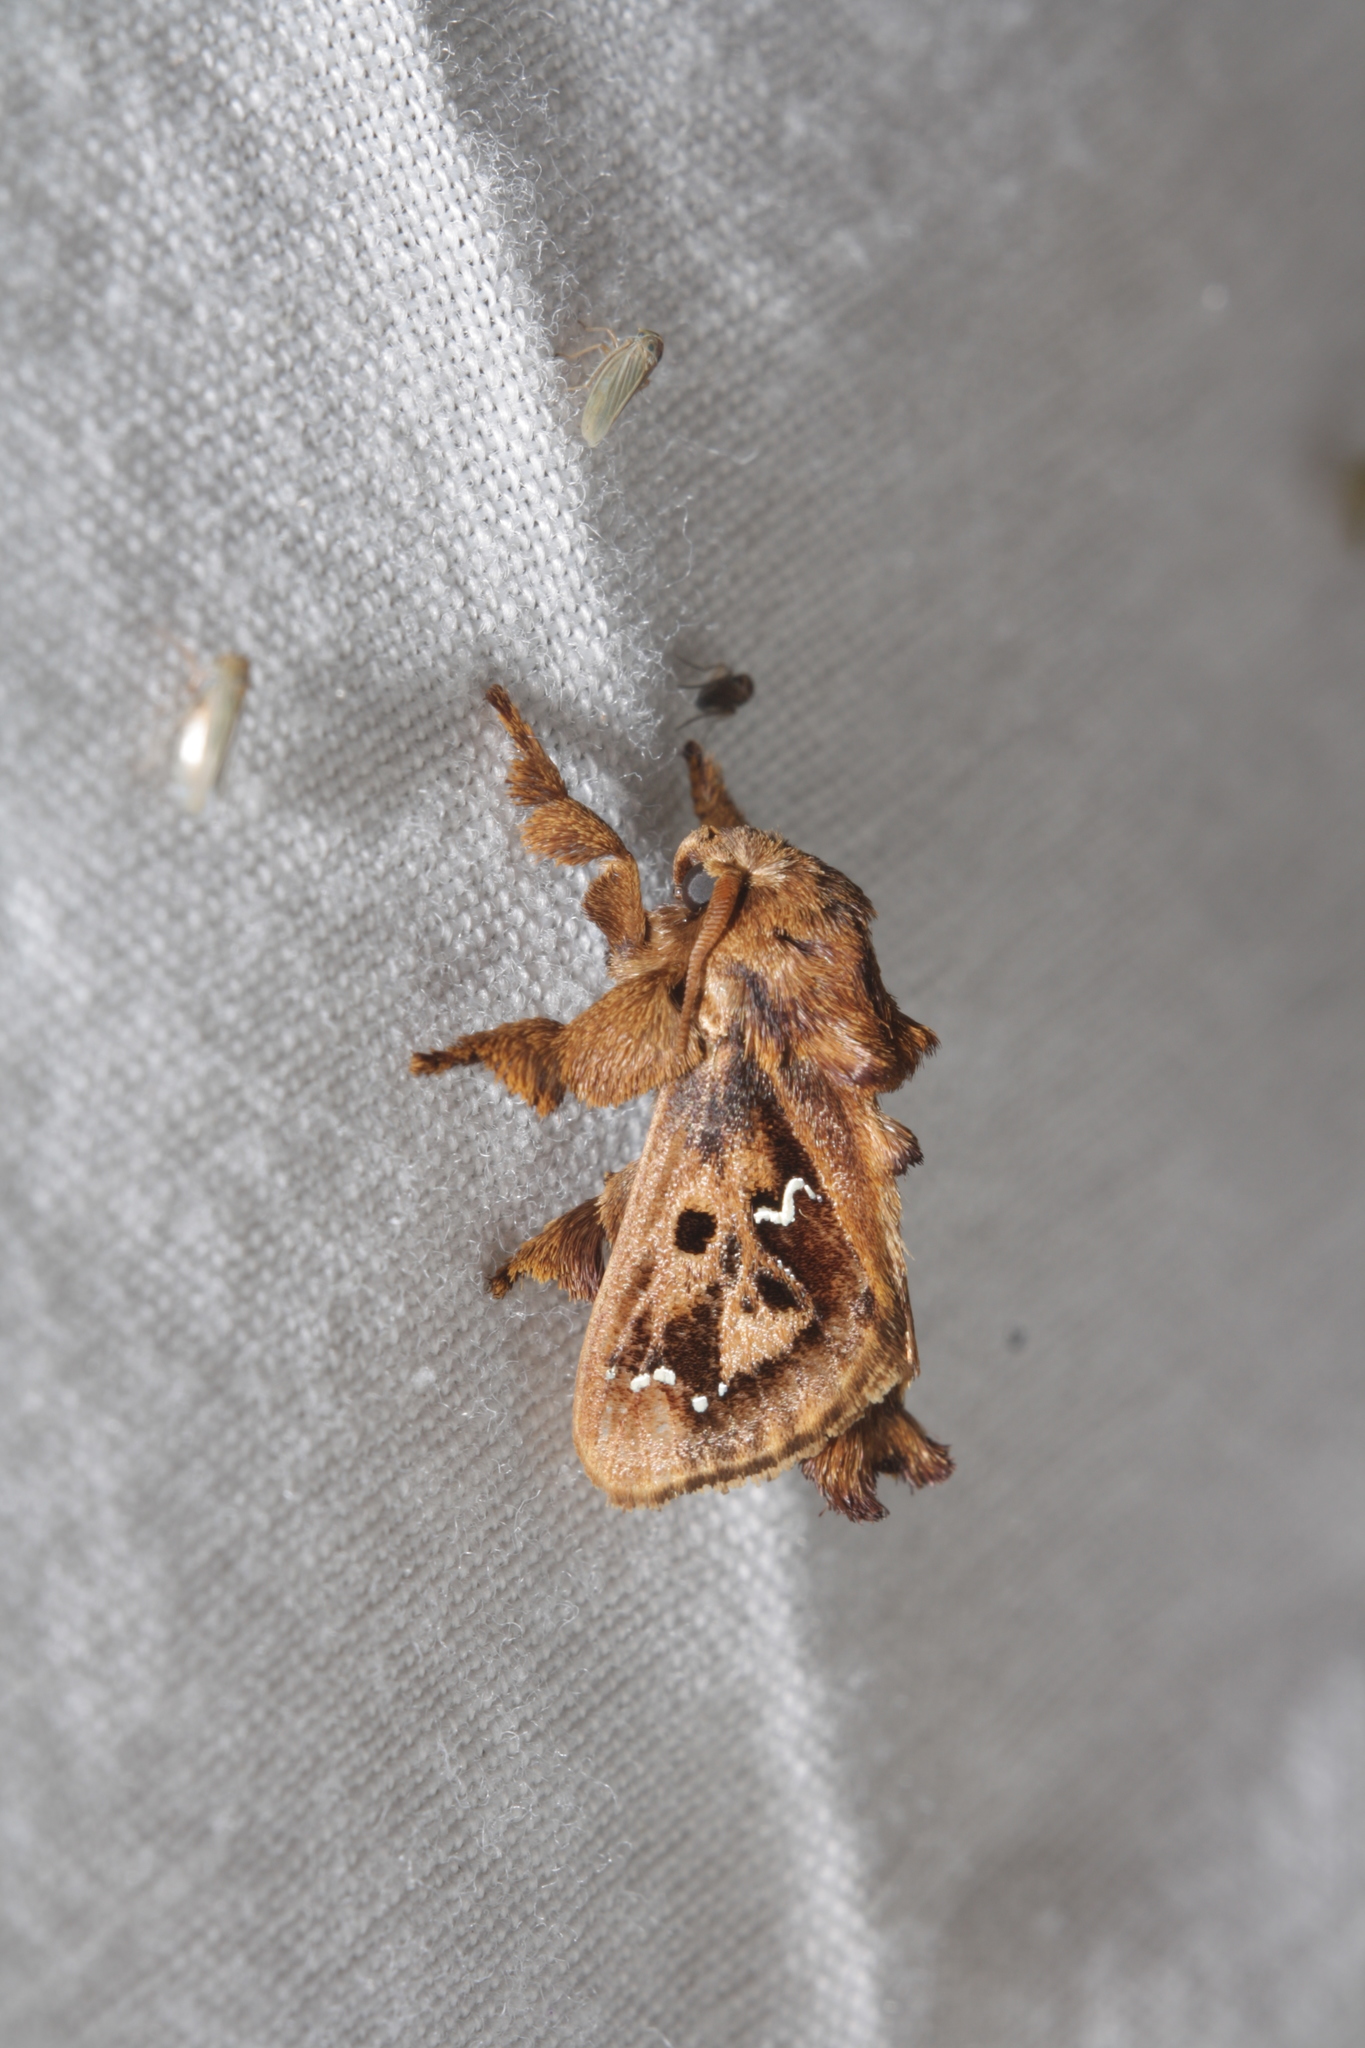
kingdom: Animalia
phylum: Arthropoda
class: Insecta
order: Lepidoptera
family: Limacodidae
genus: Euclea
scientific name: Euclea buscki
